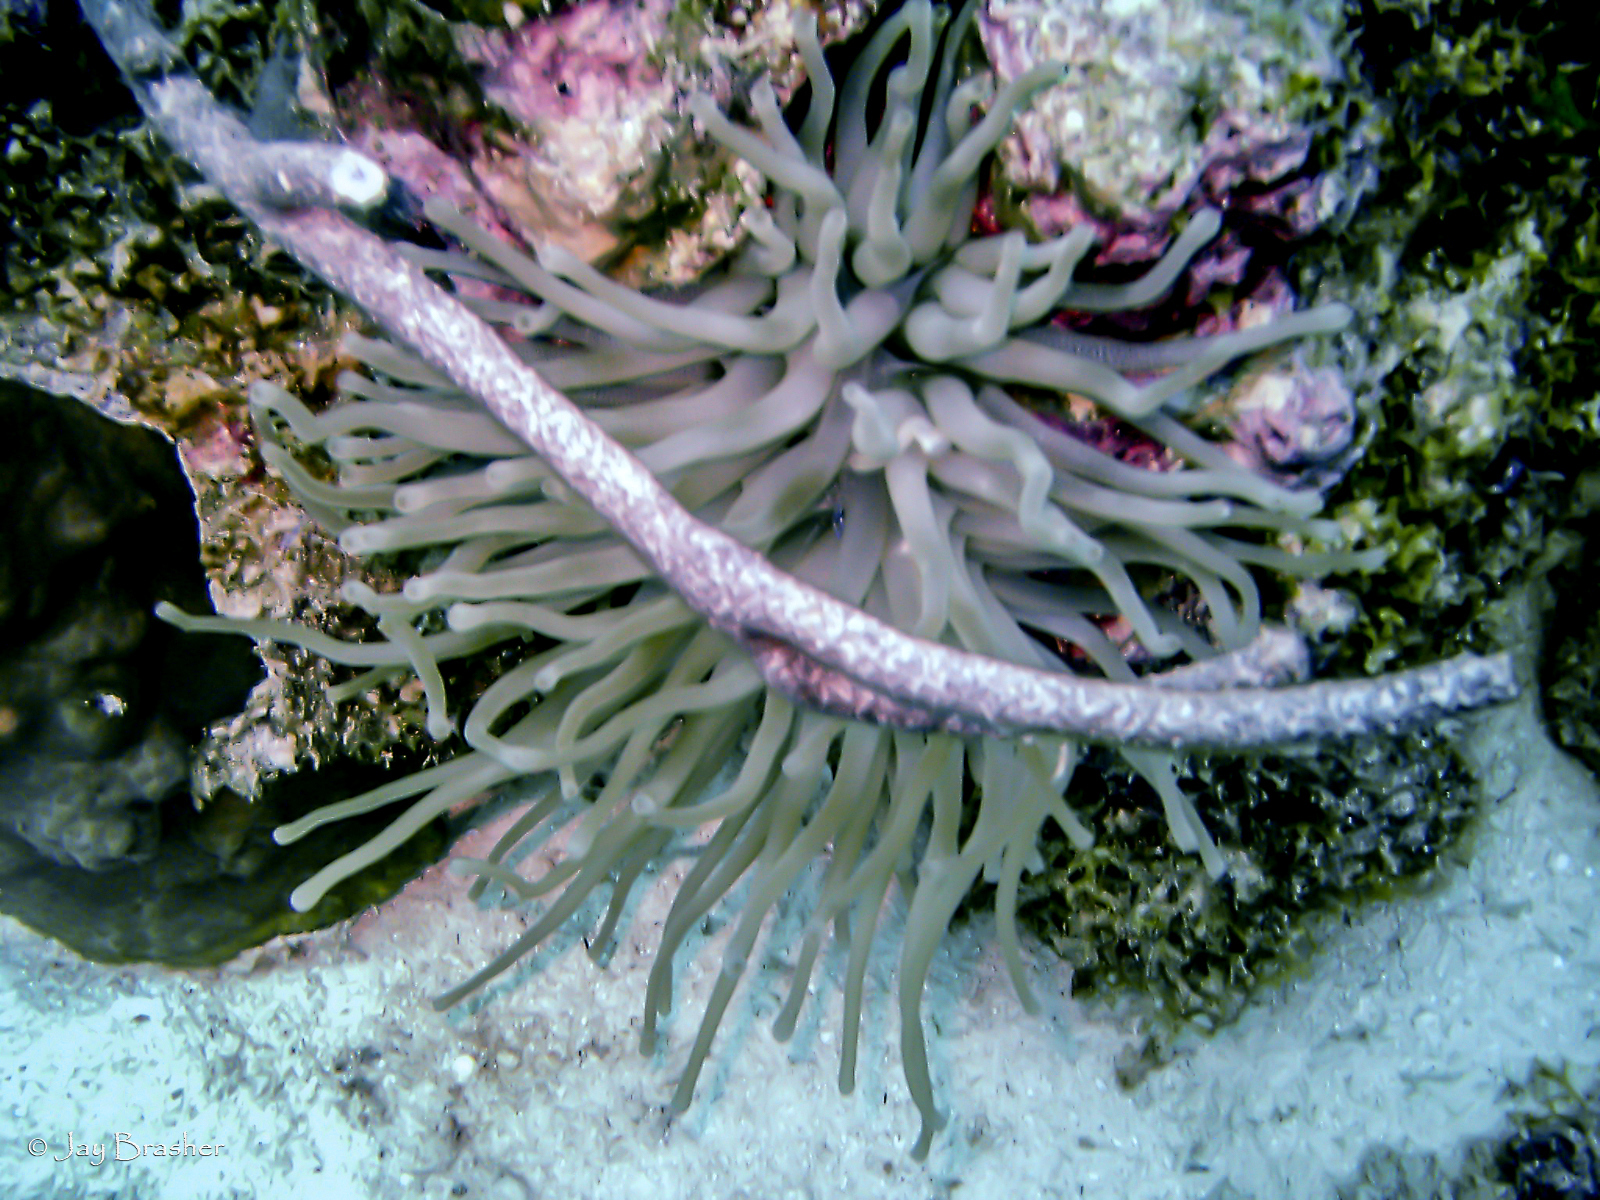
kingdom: Animalia
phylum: Cnidaria
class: Anthozoa
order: Actiniaria
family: Actiniidae
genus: Condylactis
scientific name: Condylactis gigantea
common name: Giant caribbean anemone
